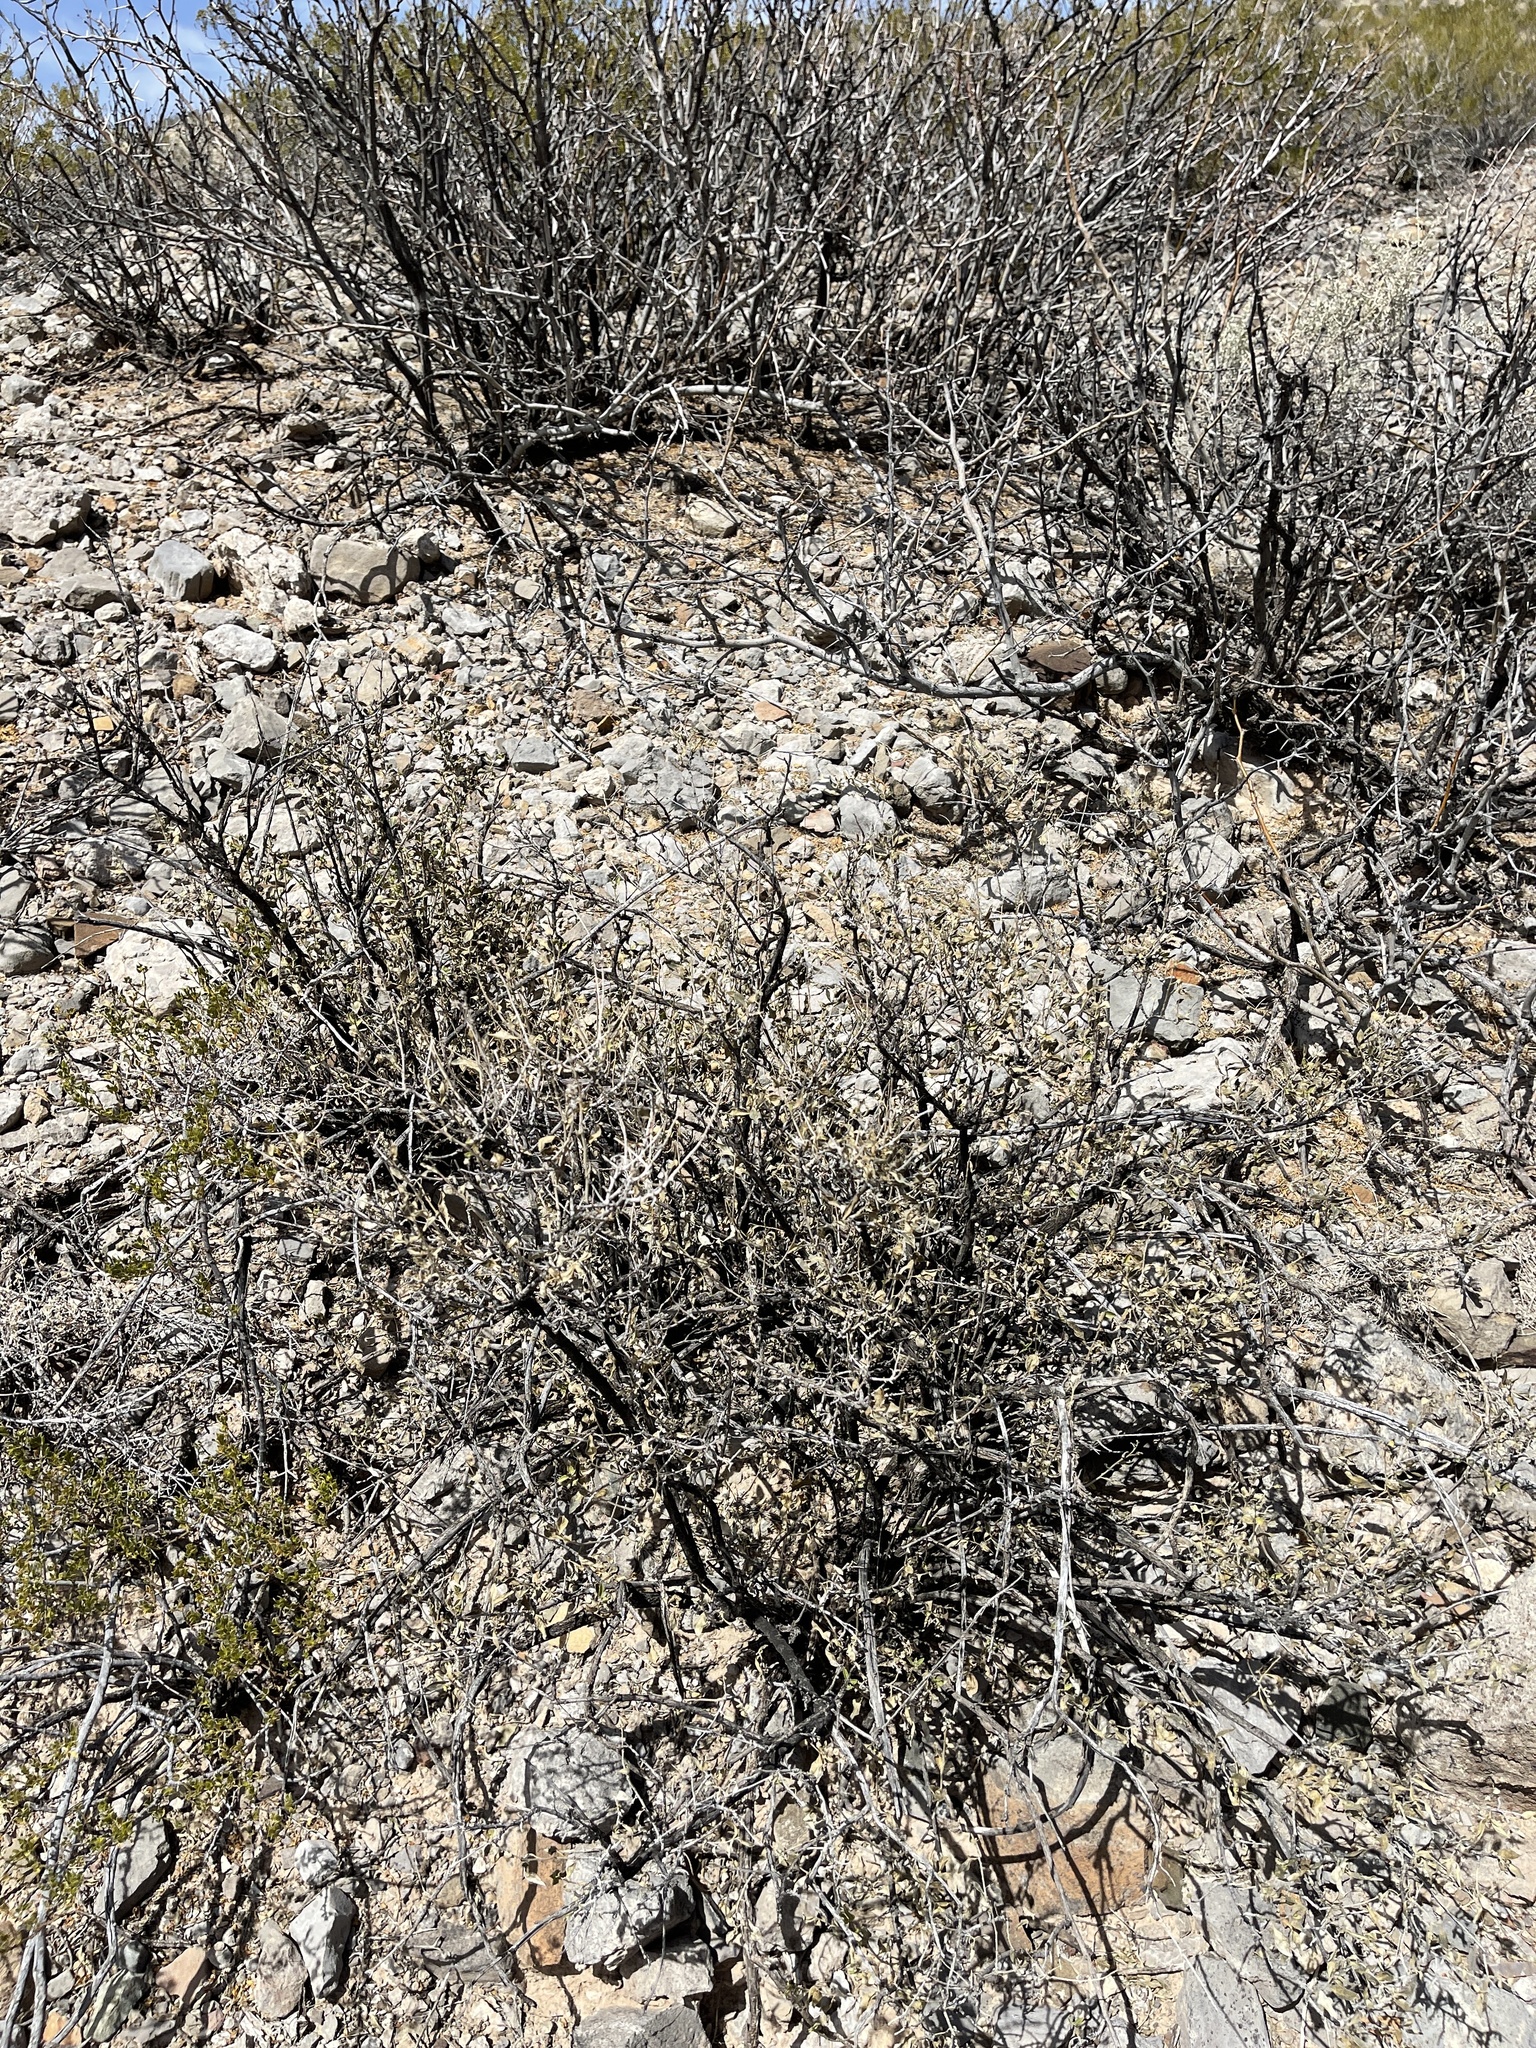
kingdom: Plantae
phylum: Tracheophyta
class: Magnoliopsida
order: Asterales
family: Asteraceae
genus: Flourensia
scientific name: Flourensia cernua
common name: Varnishbush
